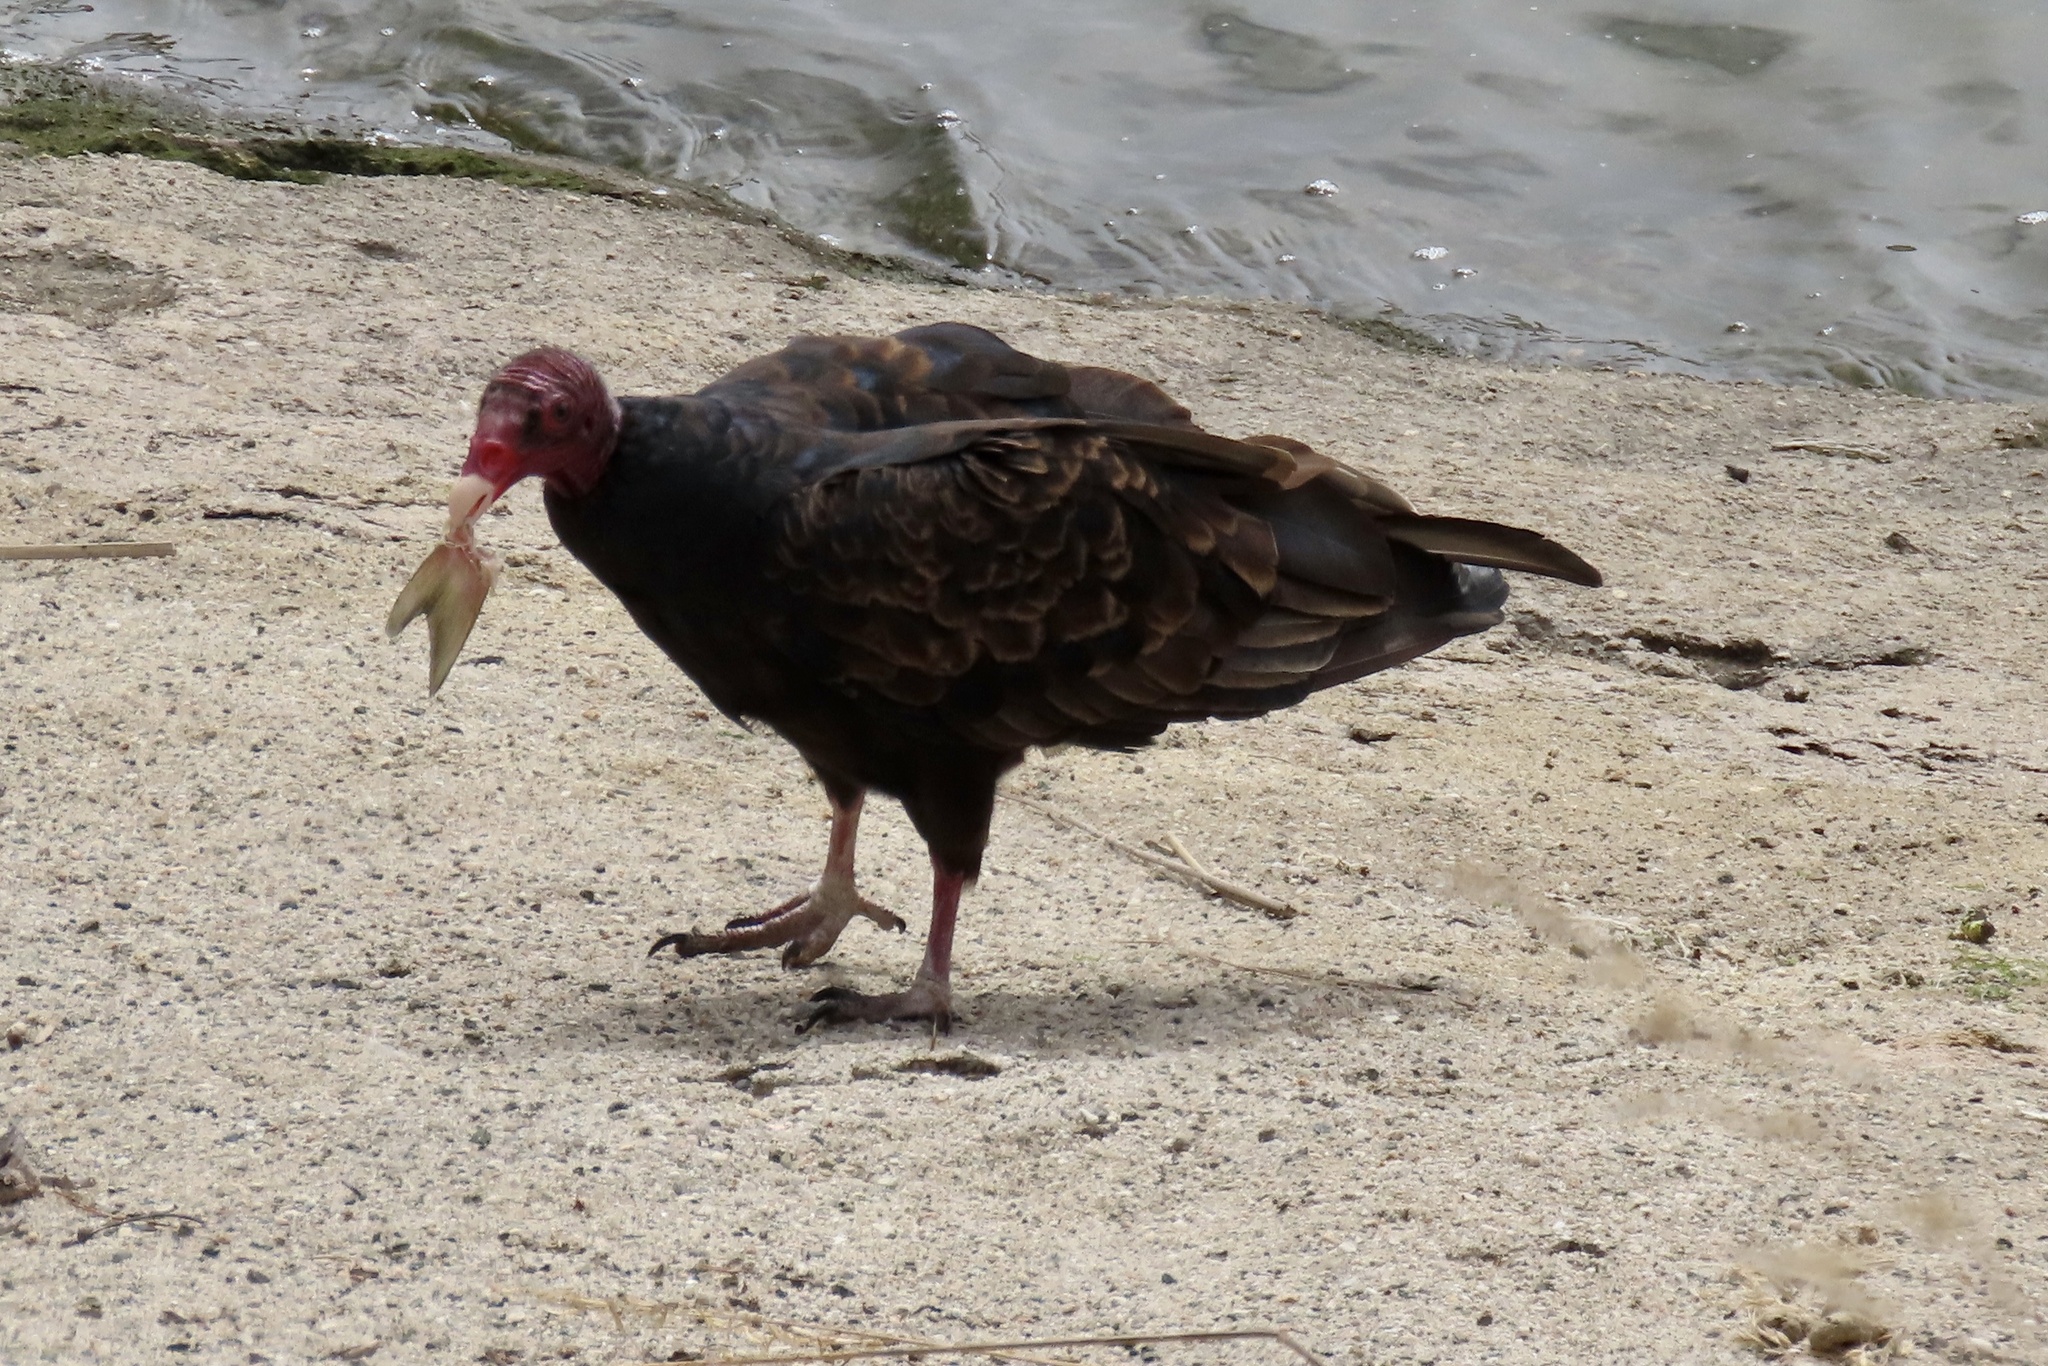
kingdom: Animalia
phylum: Chordata
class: Aves
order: Accipitriformes
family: Cathartidae
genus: Cathartes
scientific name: Cathartes aura
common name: Turkey vulture
